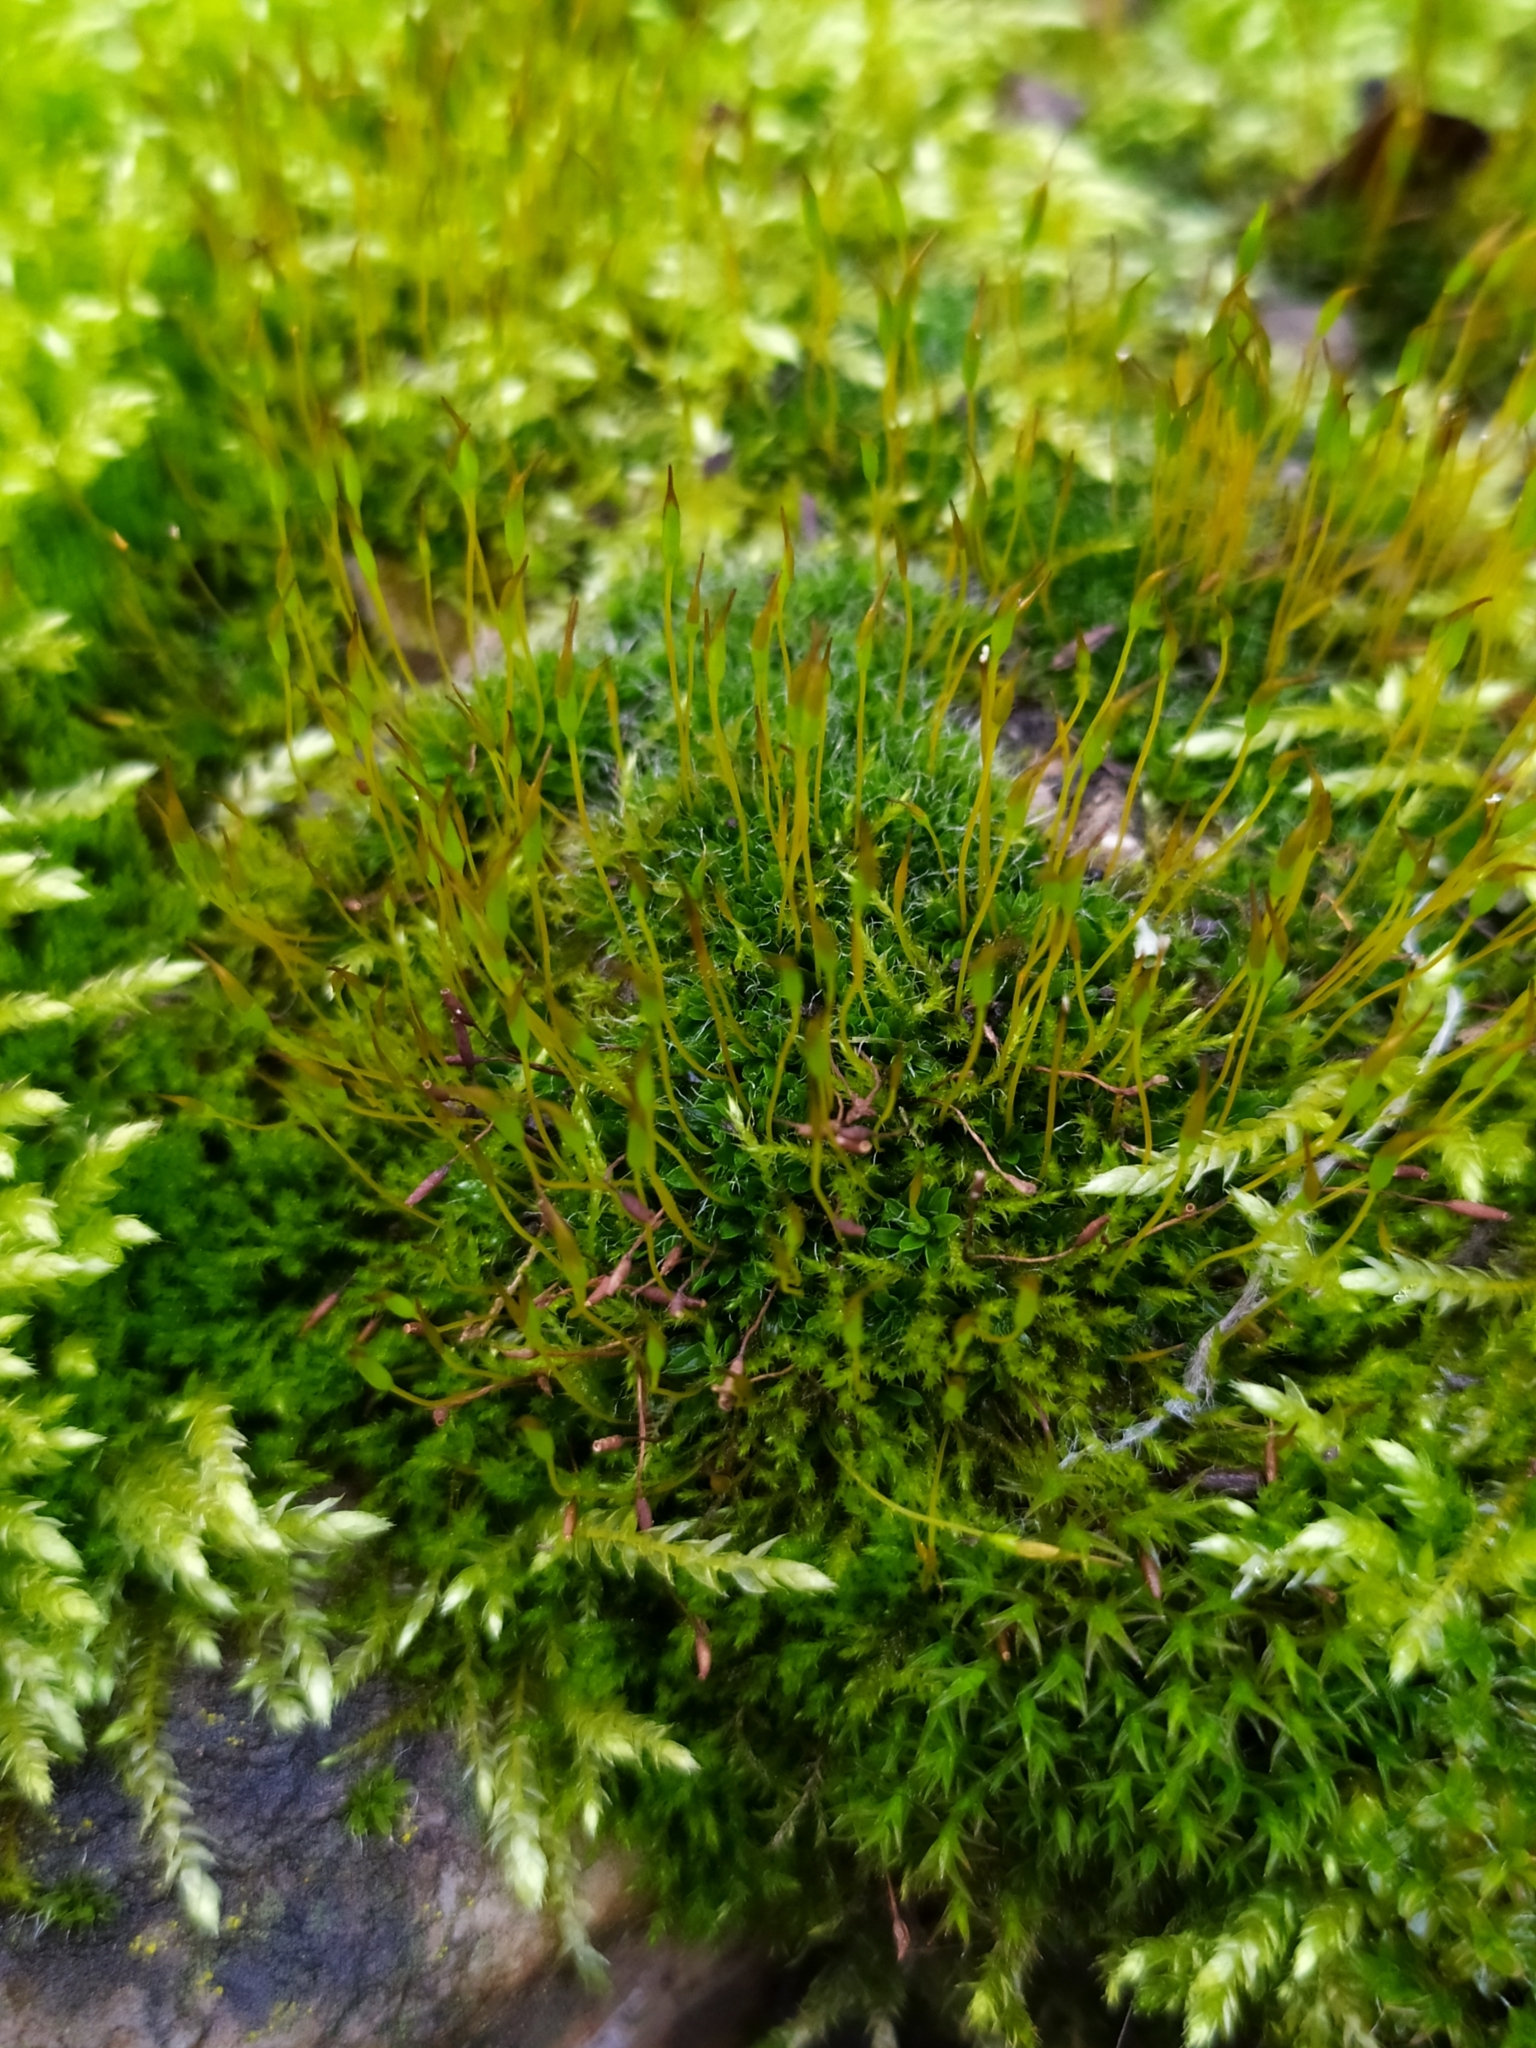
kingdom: Plantae
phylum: Bryophyta
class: Bryopsida
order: Pottiales
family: Pottiaceae
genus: Tortula
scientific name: Tortula muralis
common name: Wall screw-moss
